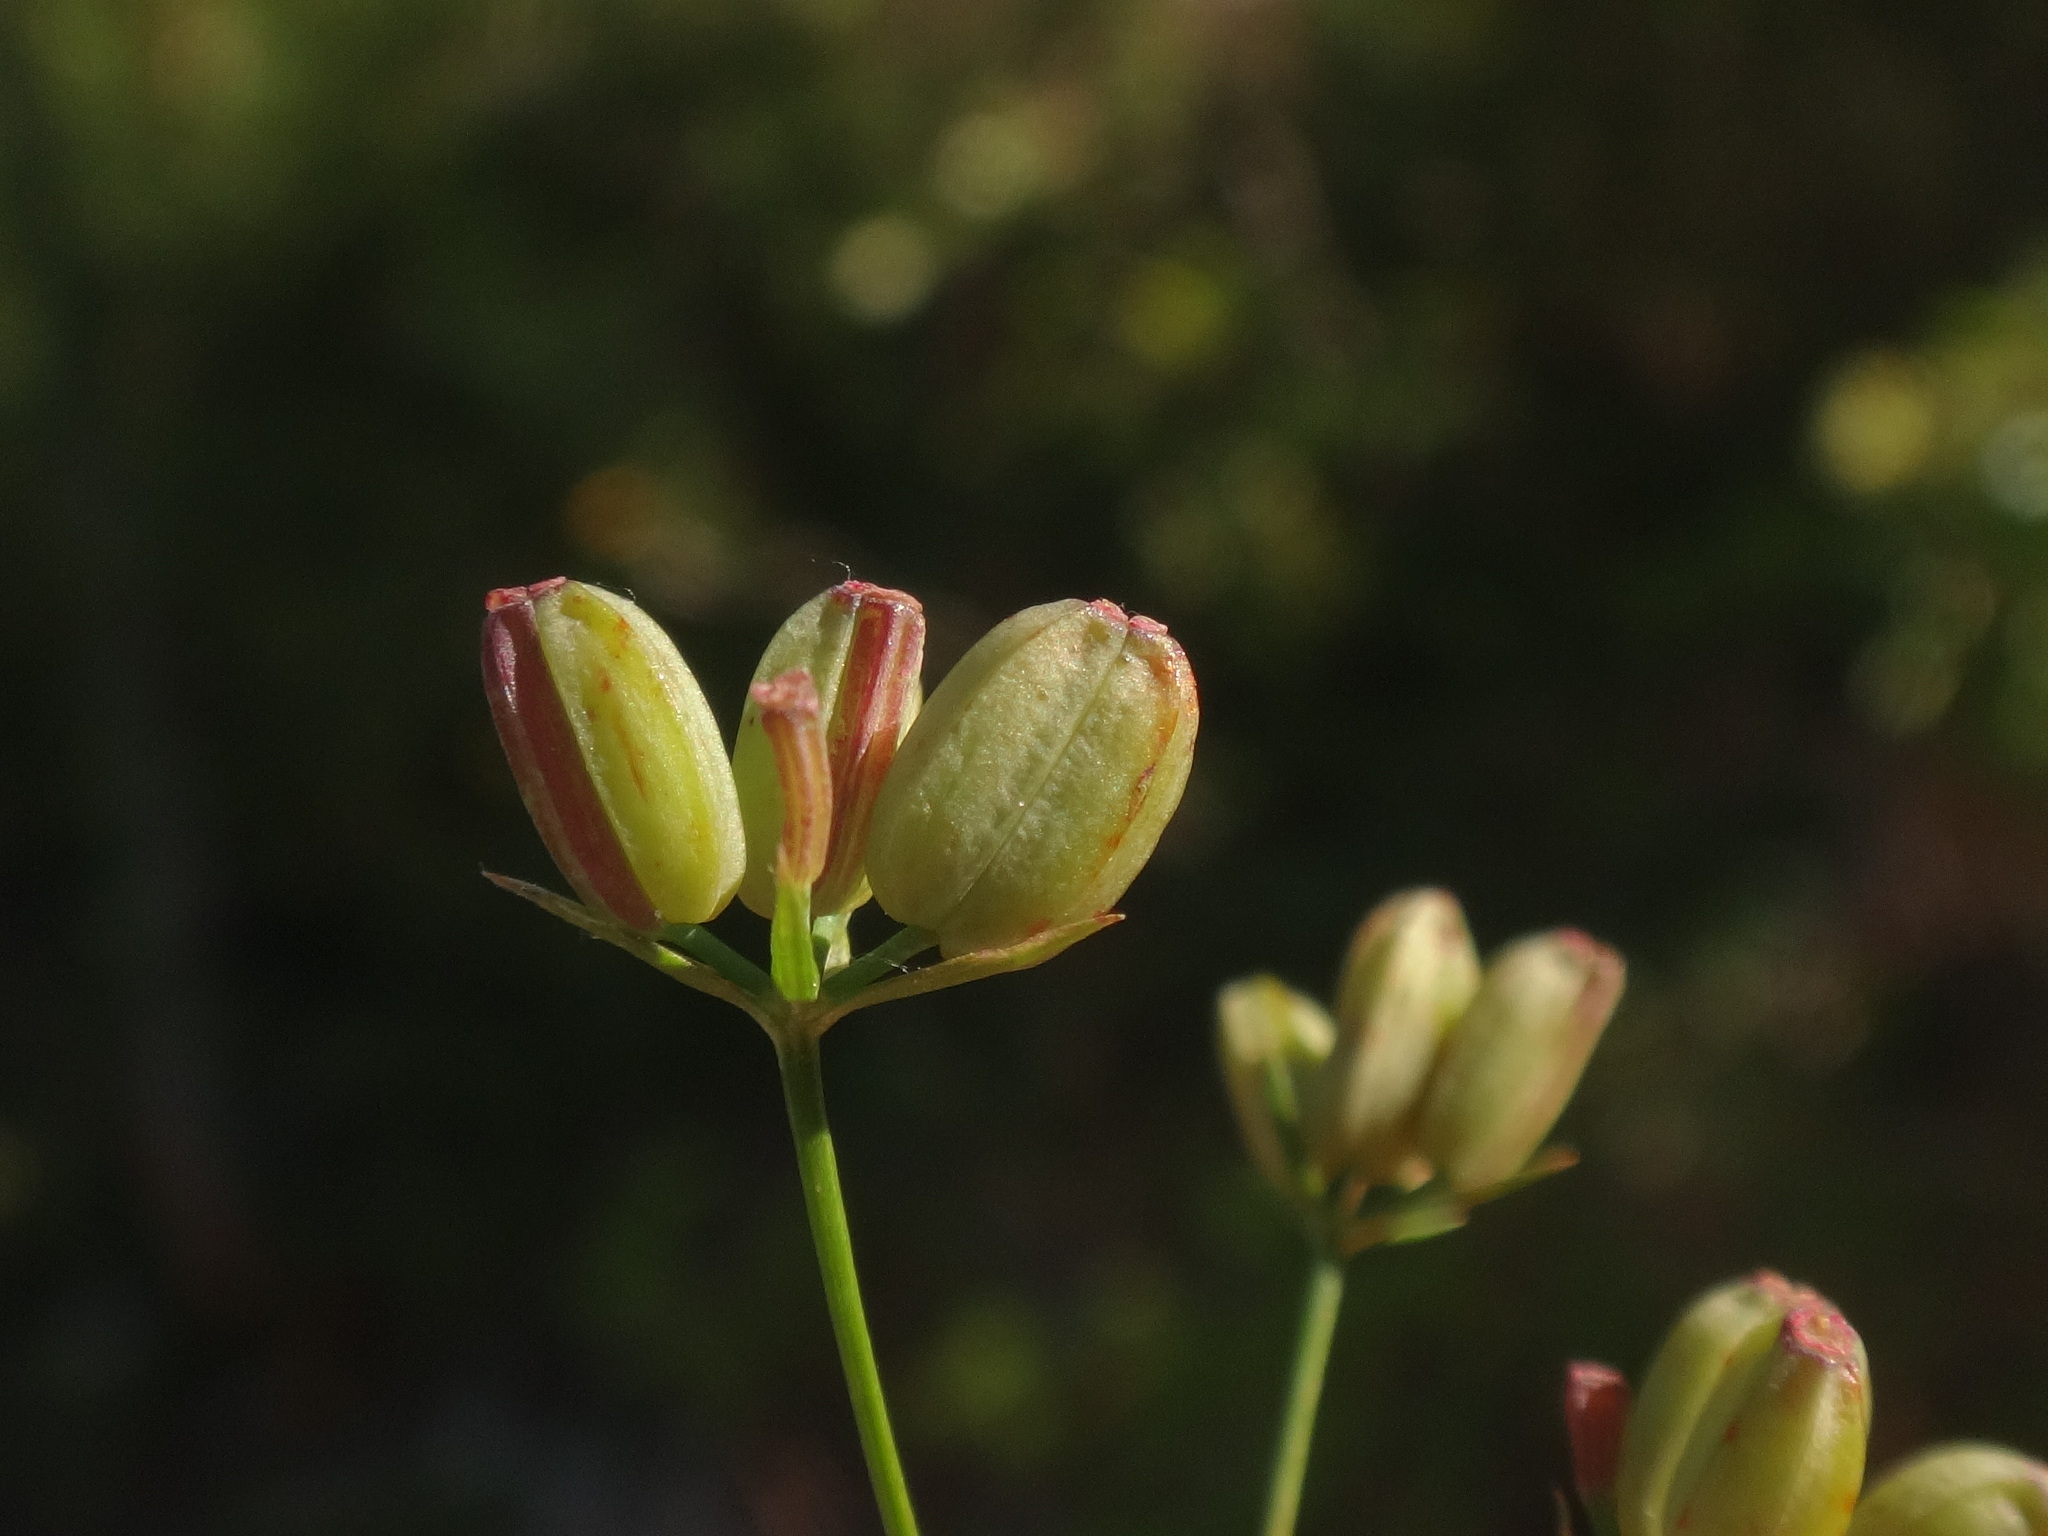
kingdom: Plantae
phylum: Tracheophyta
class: Magnoliopsida
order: Apiales
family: Apiaceae
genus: Bupleurum
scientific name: Bupleurum praealtum
